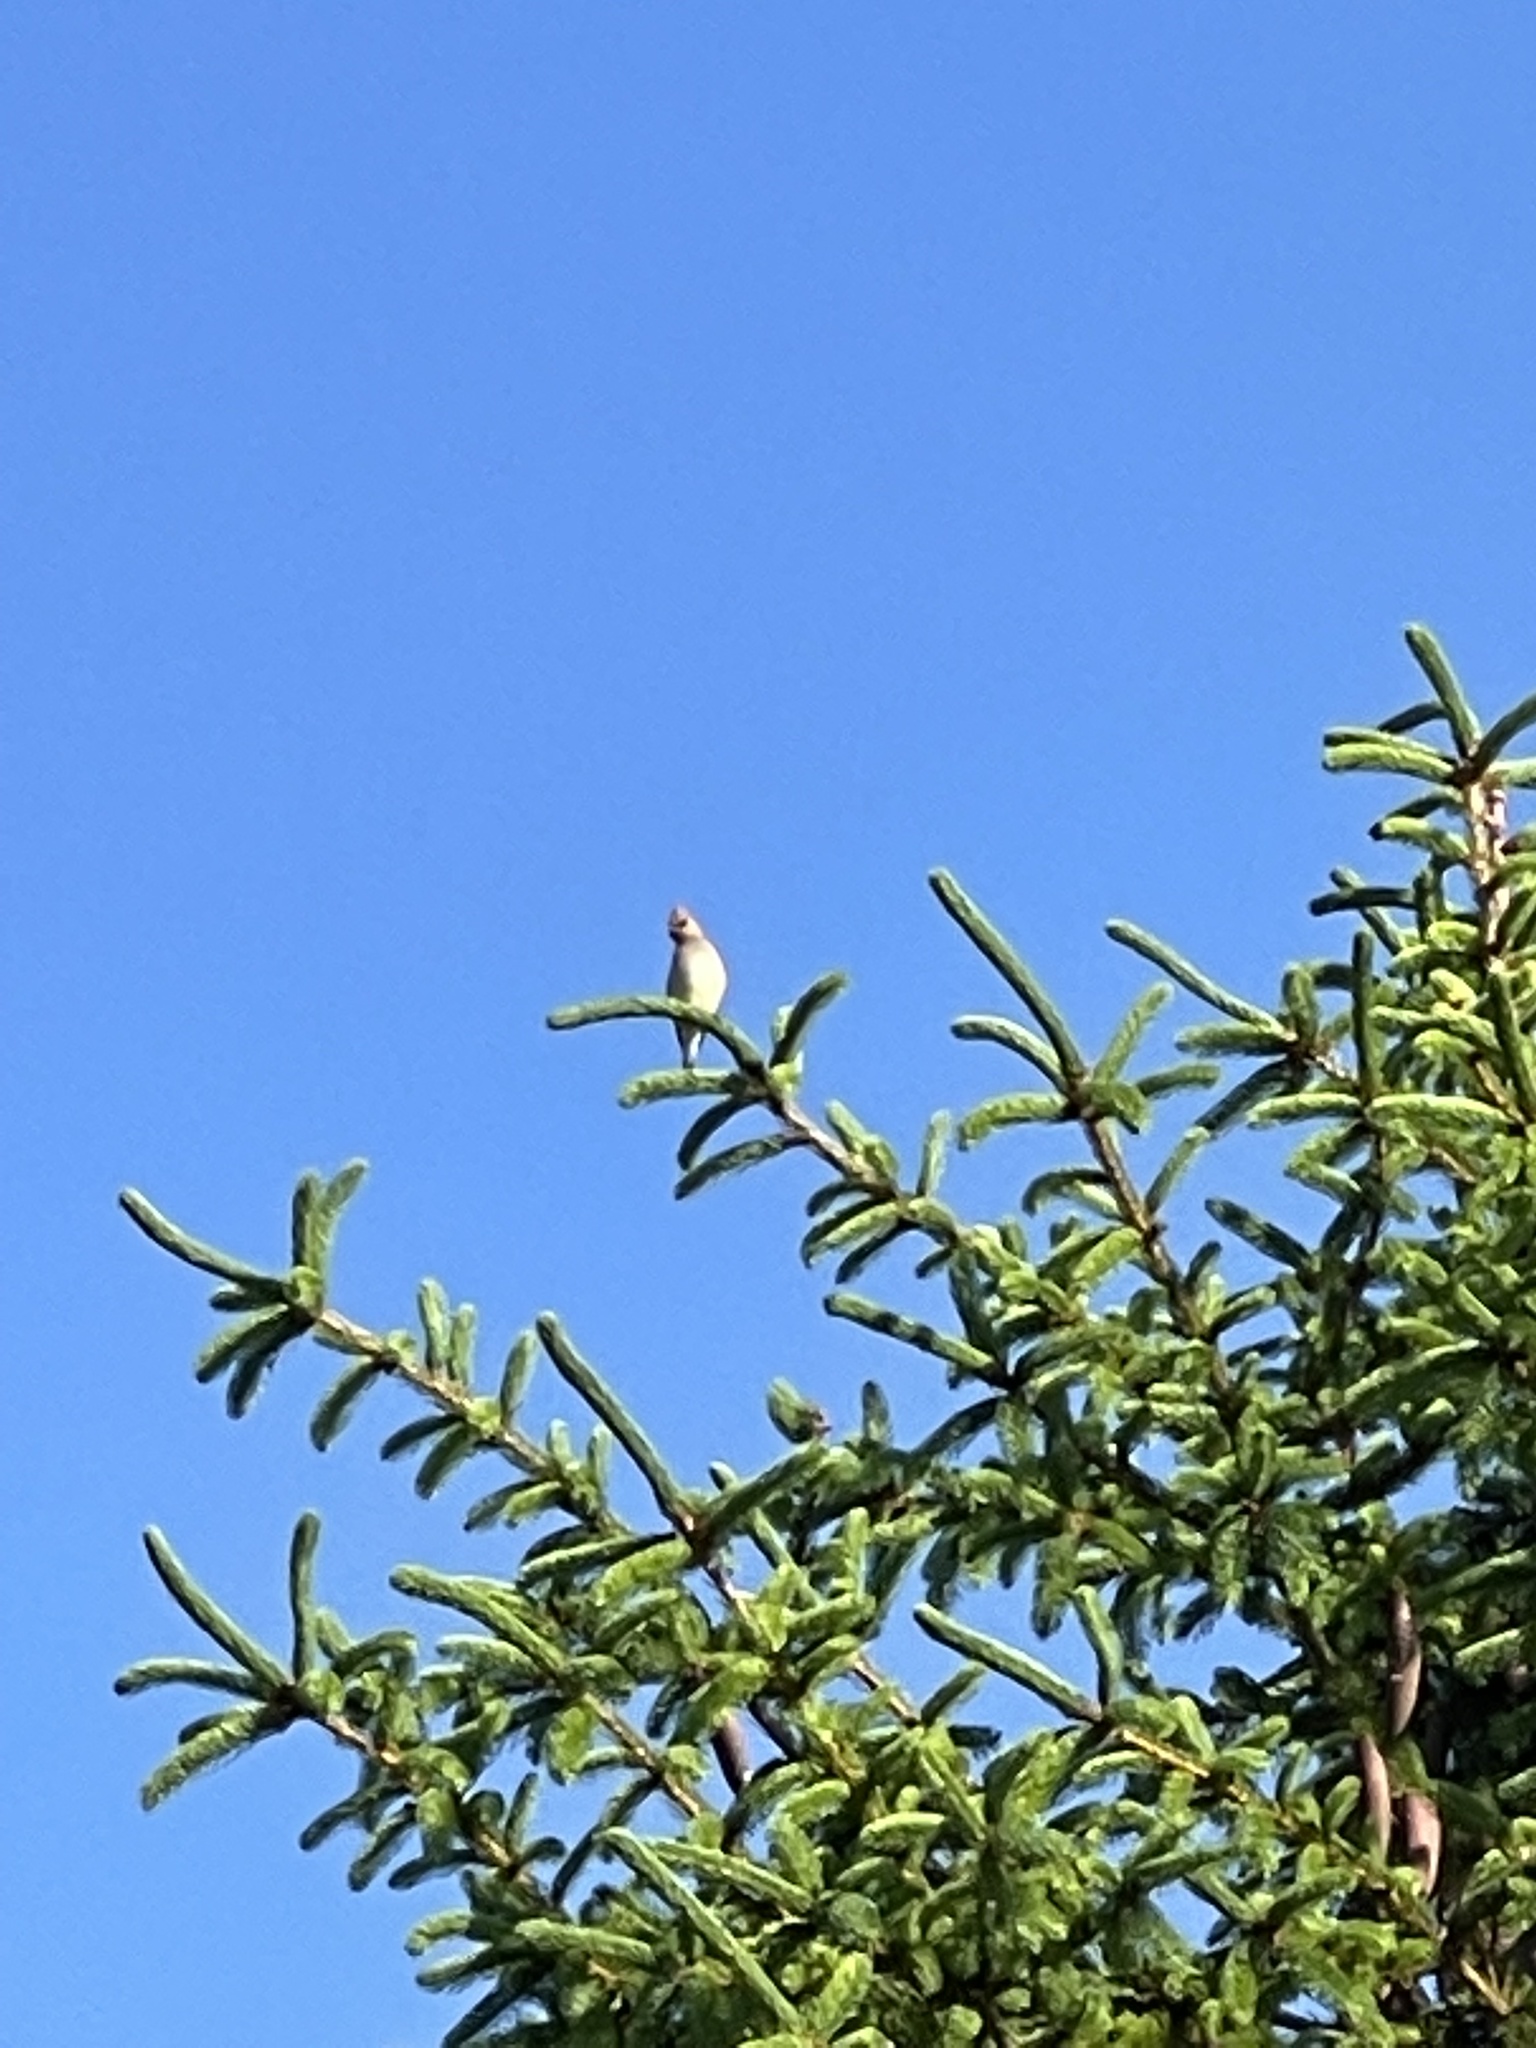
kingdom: Animalia
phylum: Chordata
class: Aves
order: Passeriformes
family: Bombycillidae
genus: Bombycilla
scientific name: Bombycilla cedrorum
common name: Cedar waxwing
